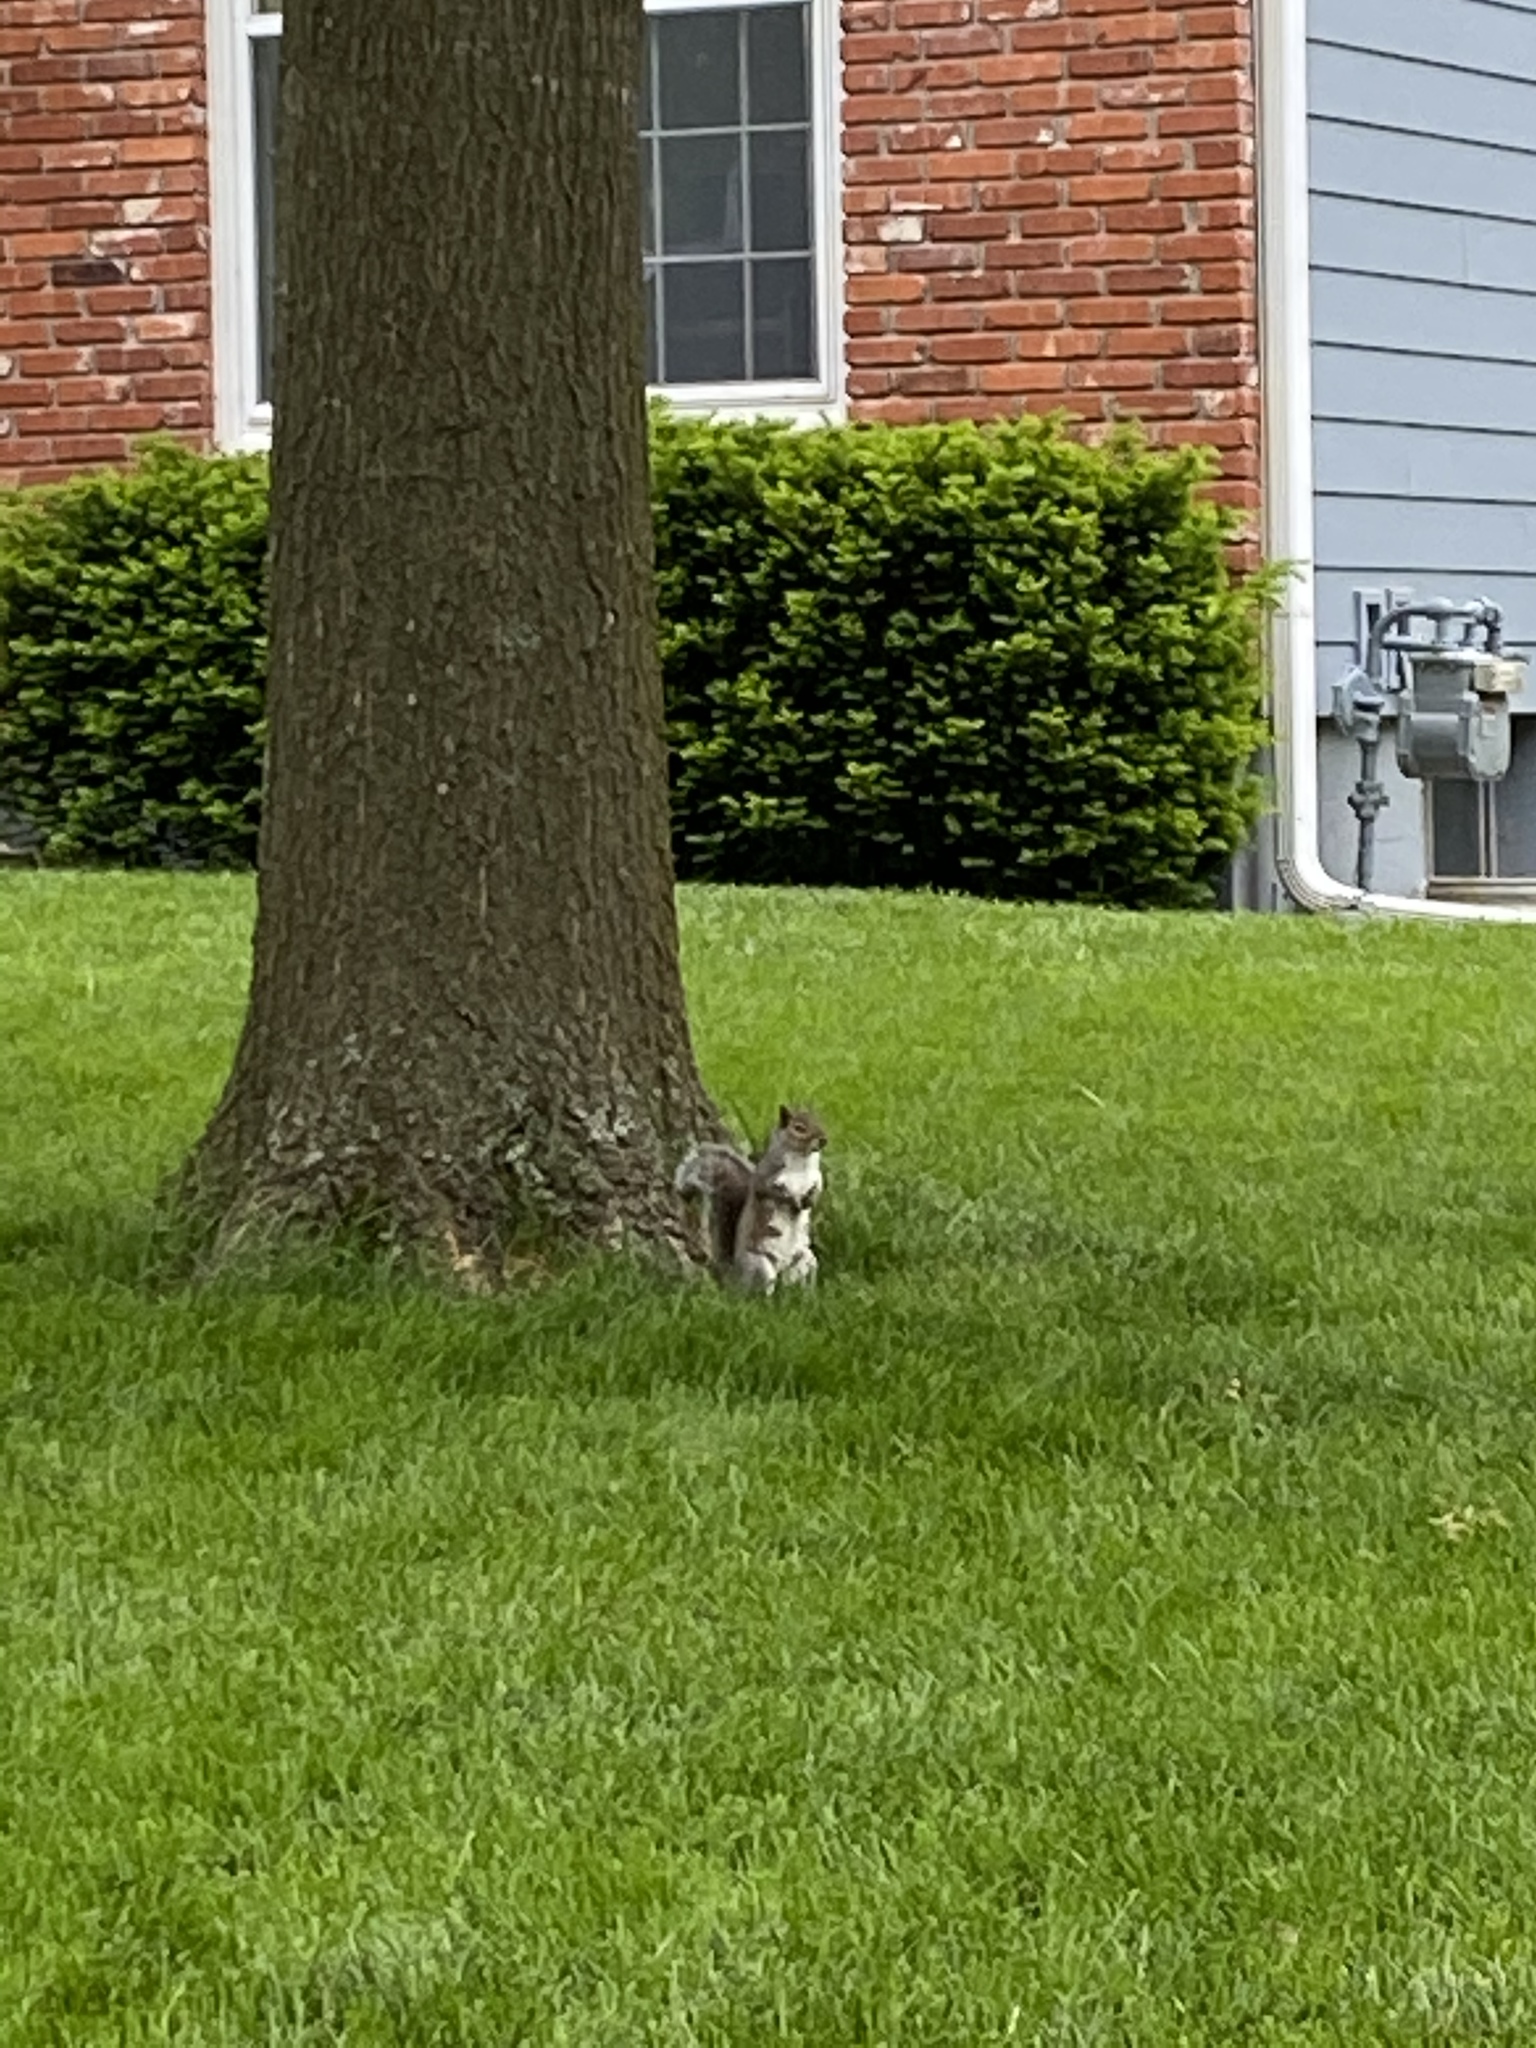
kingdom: Animalia
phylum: Chordata
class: Mammalia
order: Rodentia
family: Sciuridae
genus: Sciurus
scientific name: Sciurus carolinensis
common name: Eastern gray squirrel
